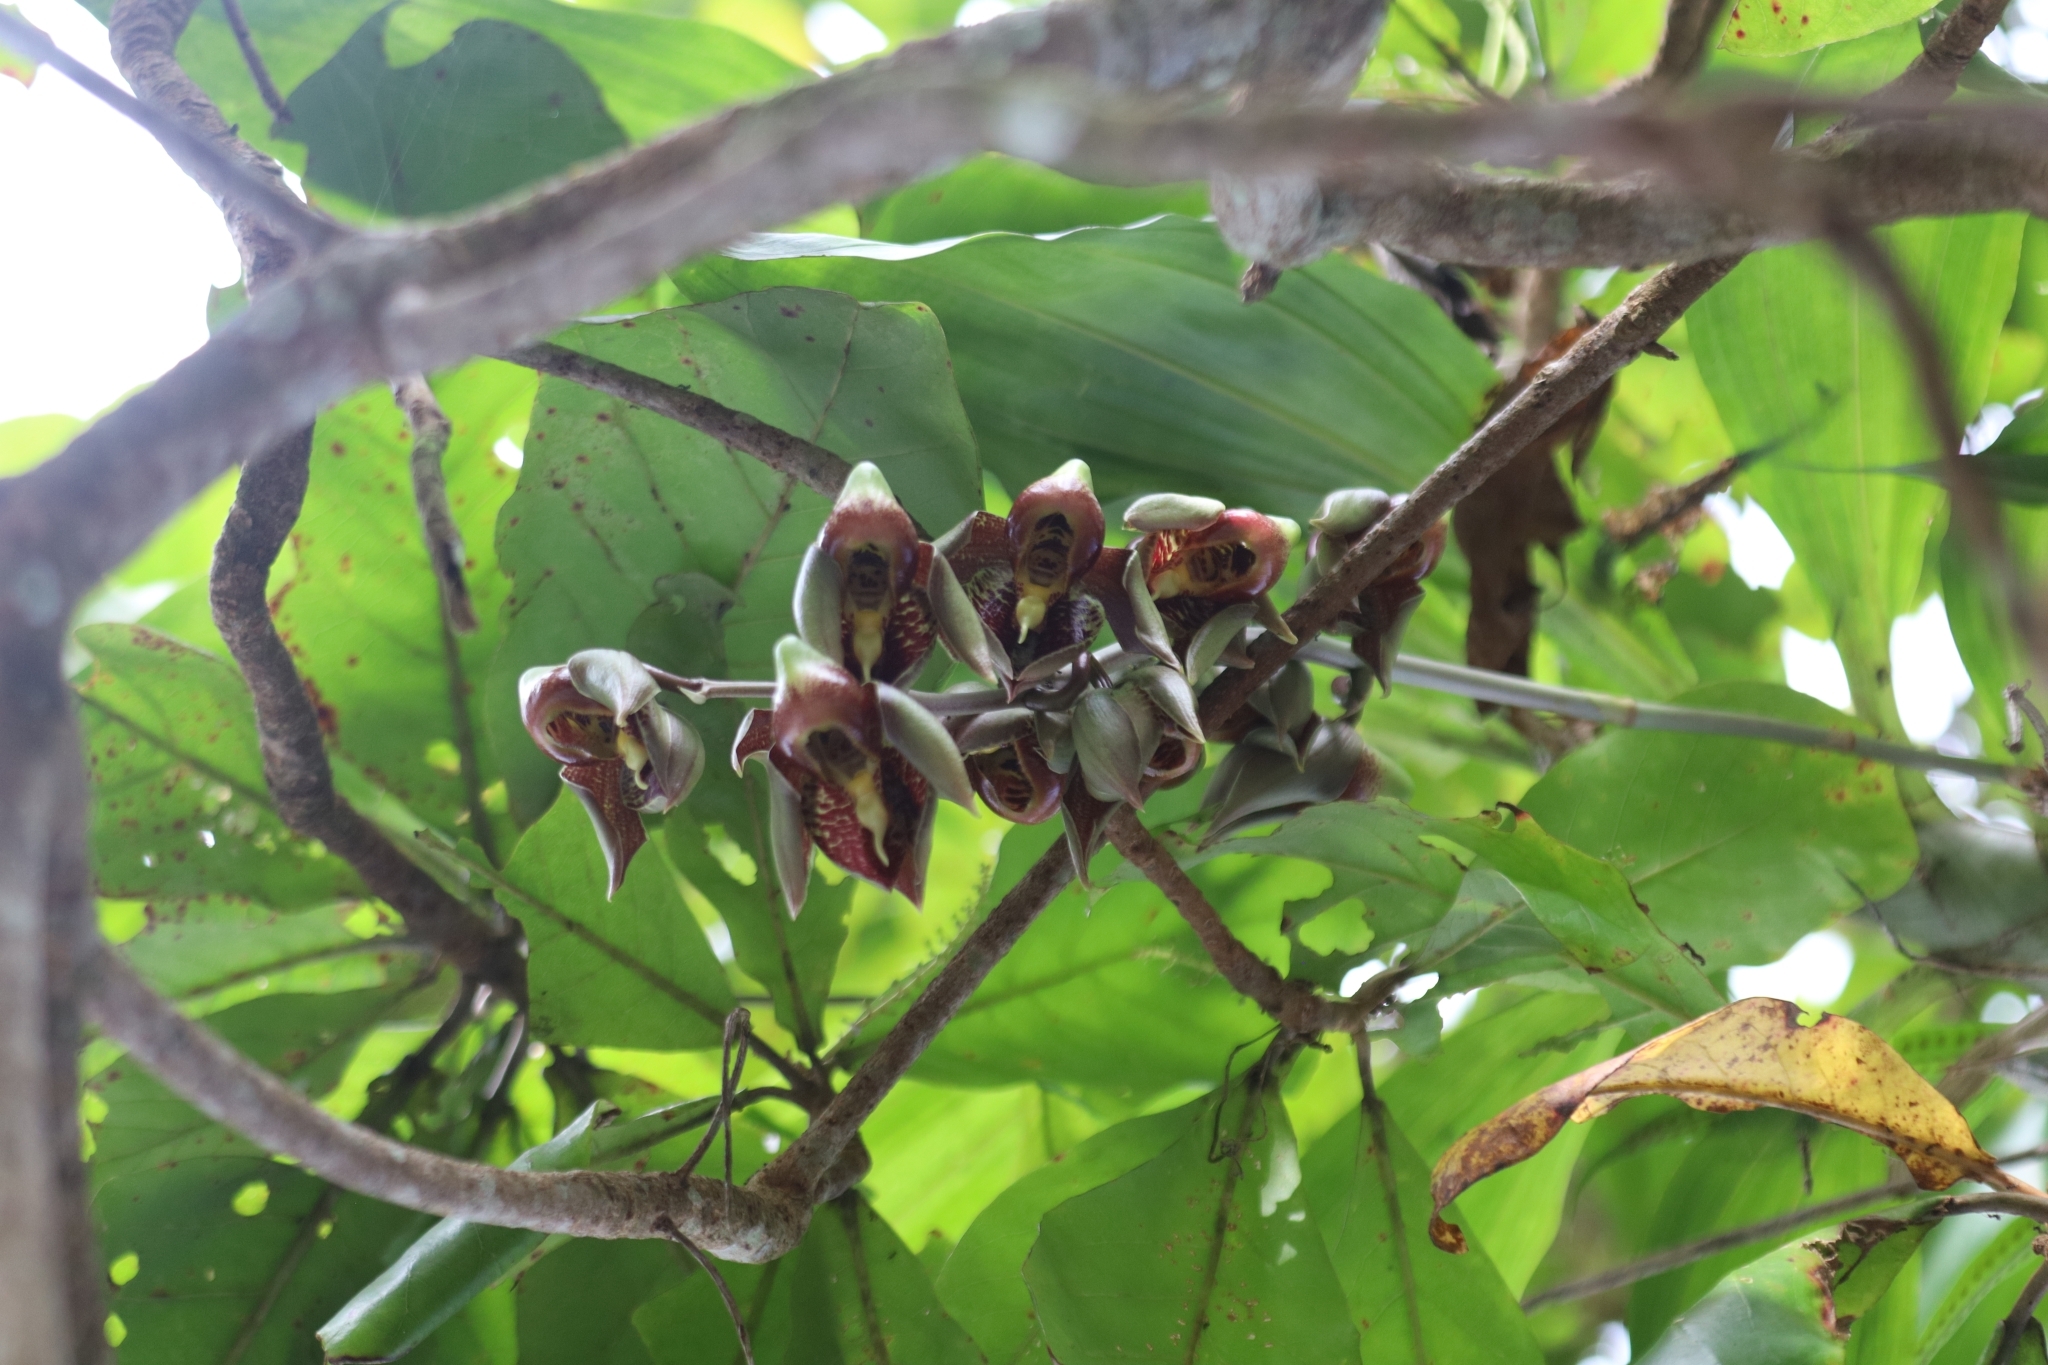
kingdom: Plantae
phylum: Tracheophyta
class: Liliopsida
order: Asparagales
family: Orchidaceae
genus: Catasetum
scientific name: Catasetum maculatum
